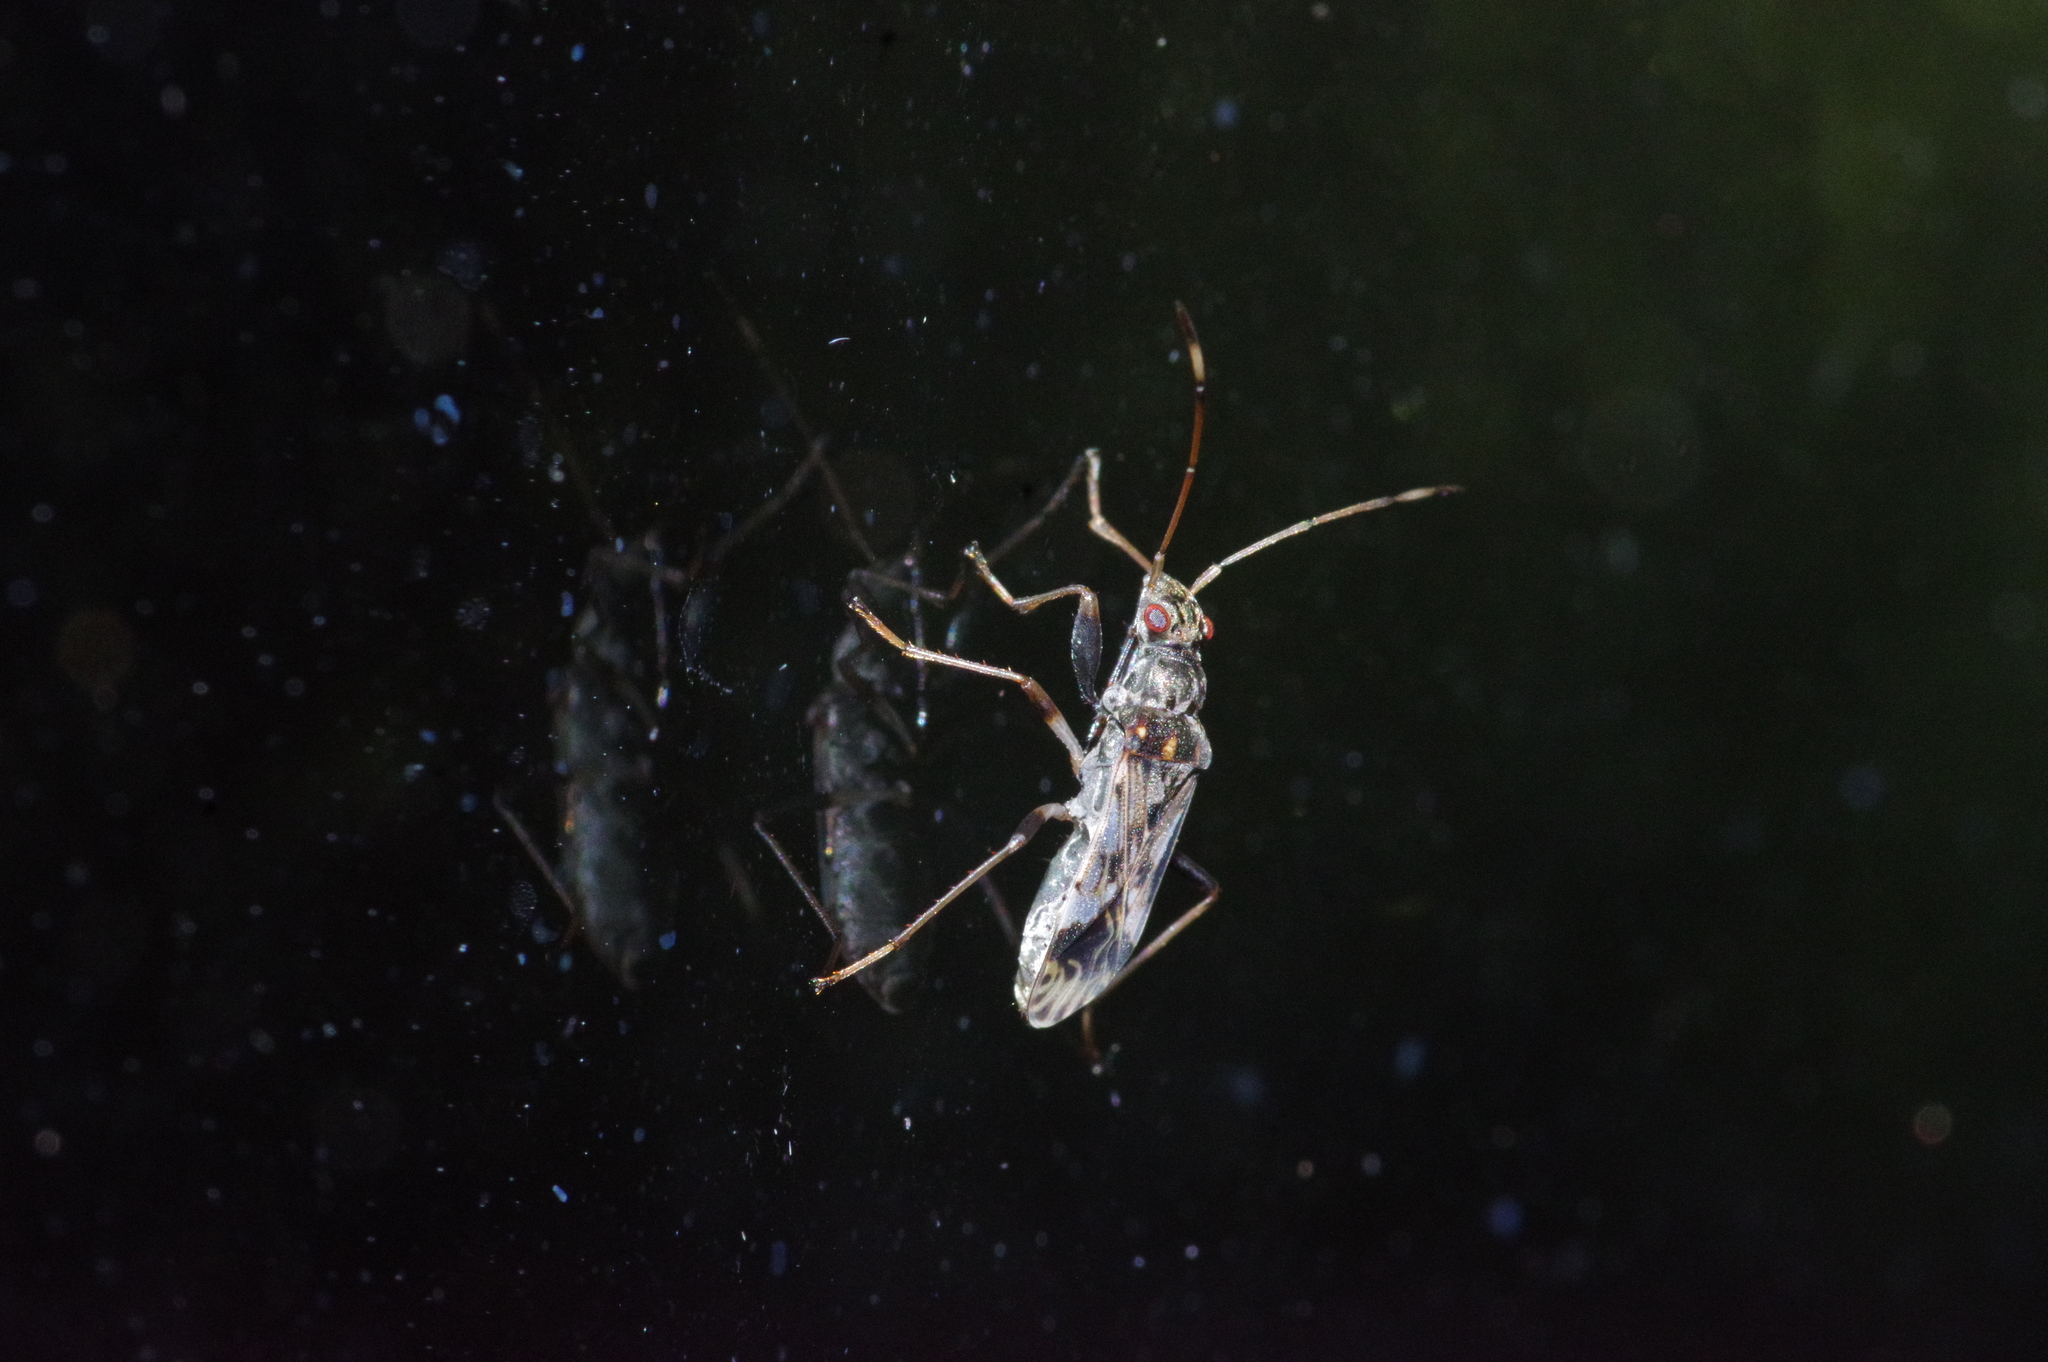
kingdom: Animalia
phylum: Arthropoda
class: Insecta
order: Hemiptera
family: Rhyparochromidae
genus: Gyndes
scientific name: Gyndes pallicornis
